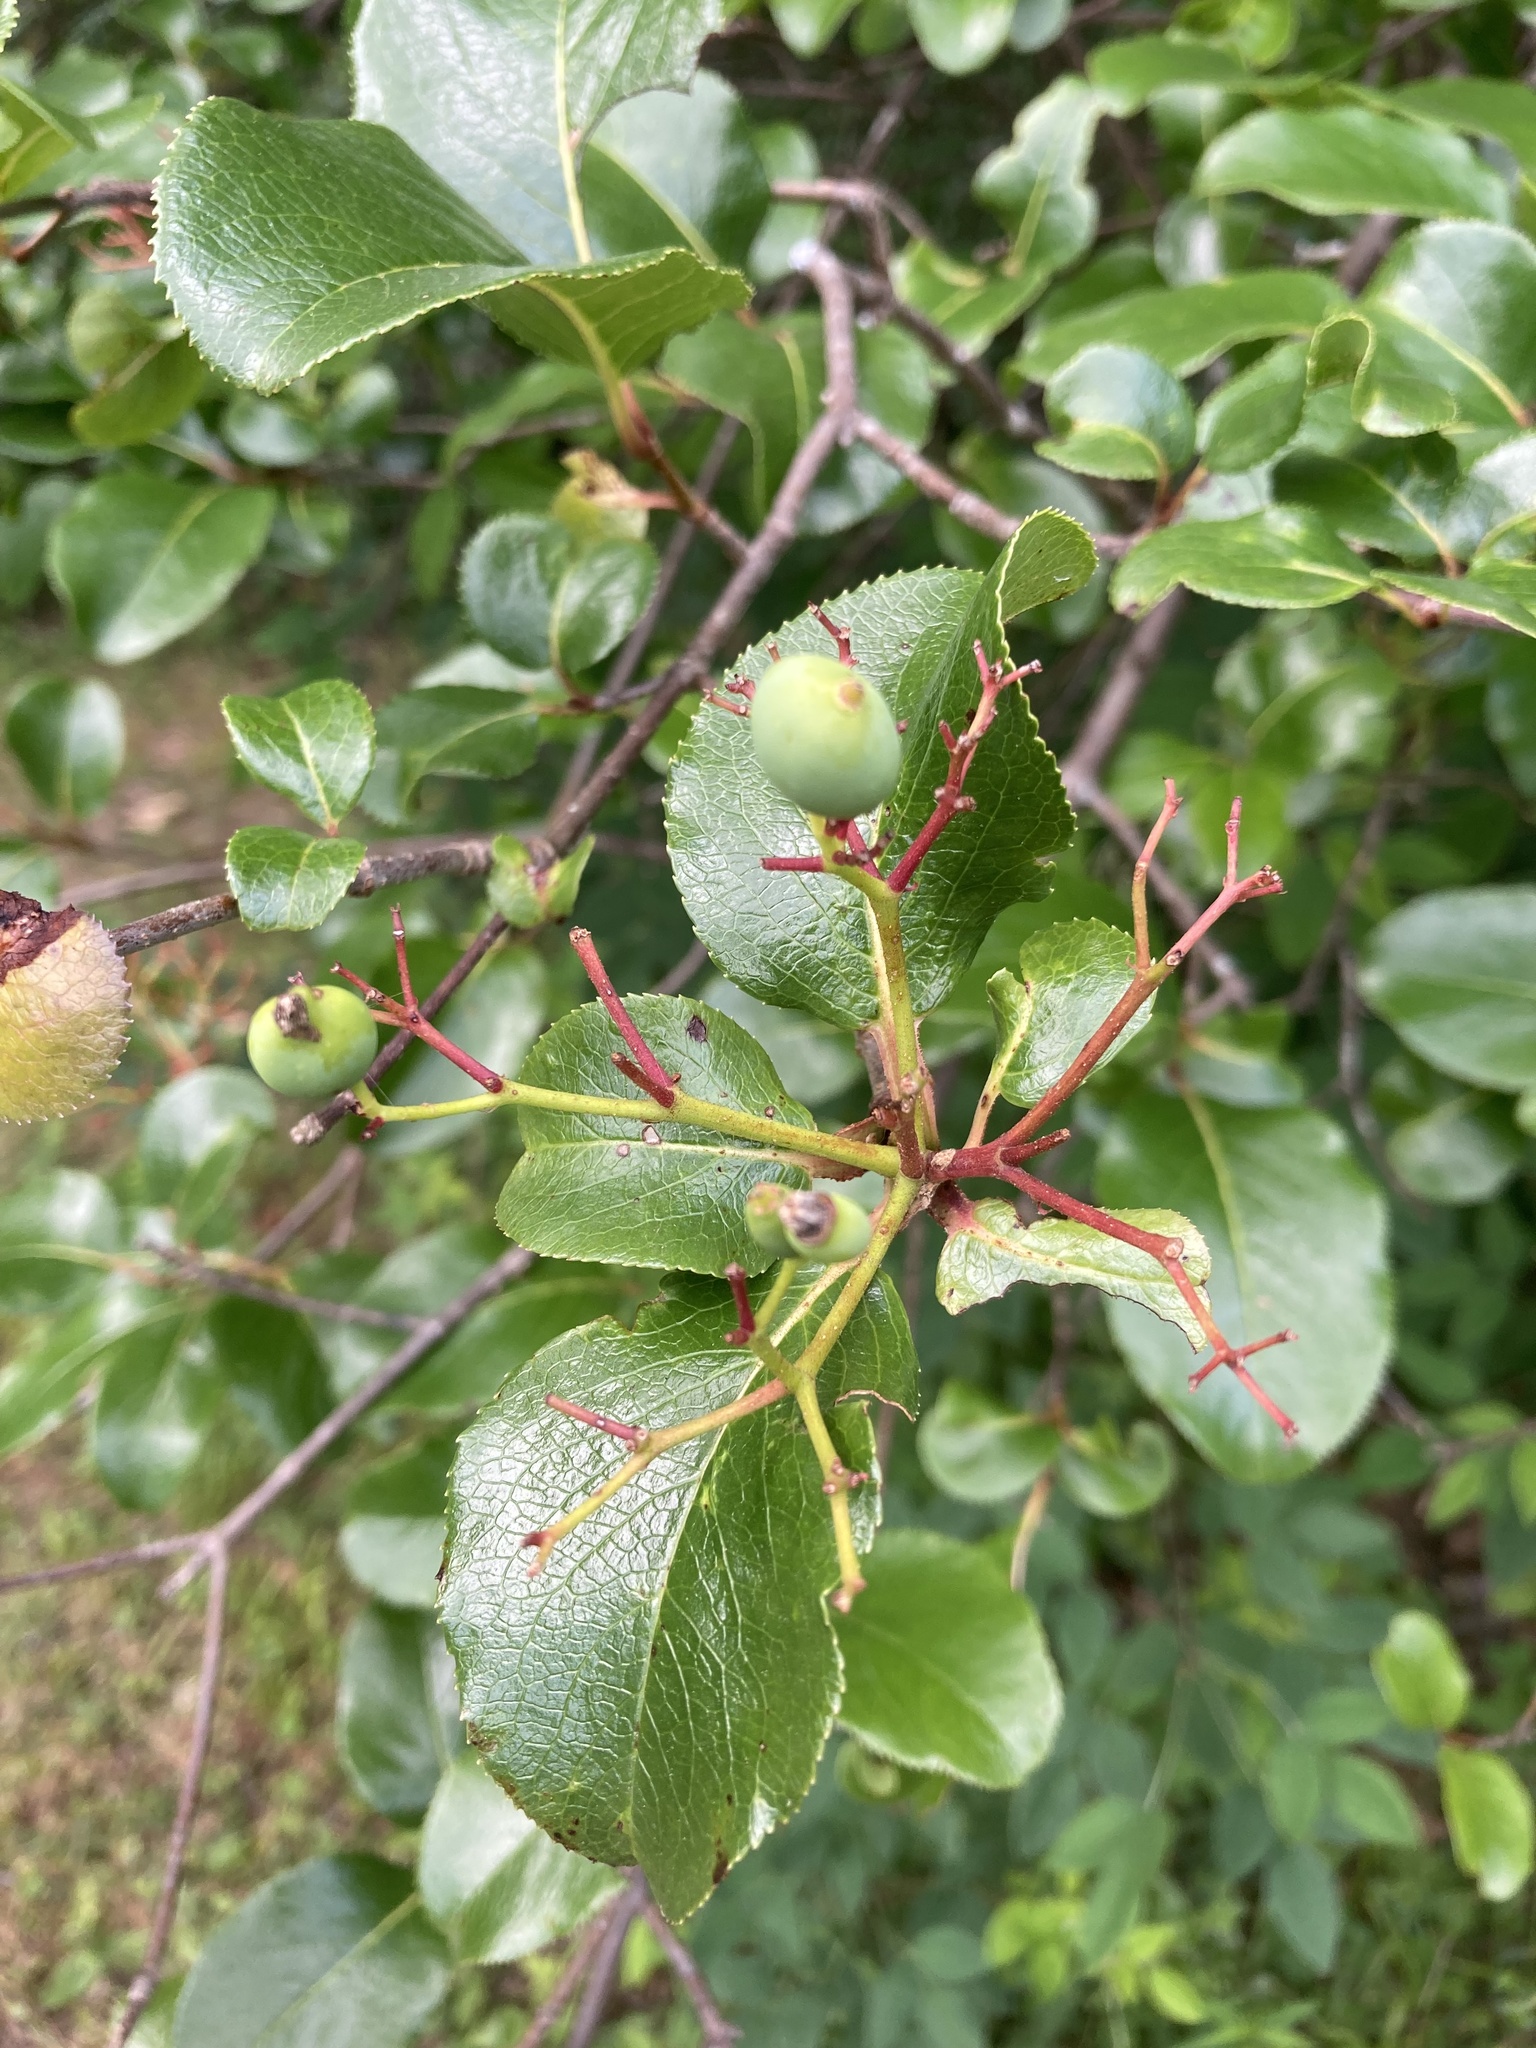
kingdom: Plantae
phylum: Tracheophyta
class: Magnoliopsida
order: Dipsacales
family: Viburnaceae
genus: Viburnum
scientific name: Viburnum rufidulum
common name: Blue haw
